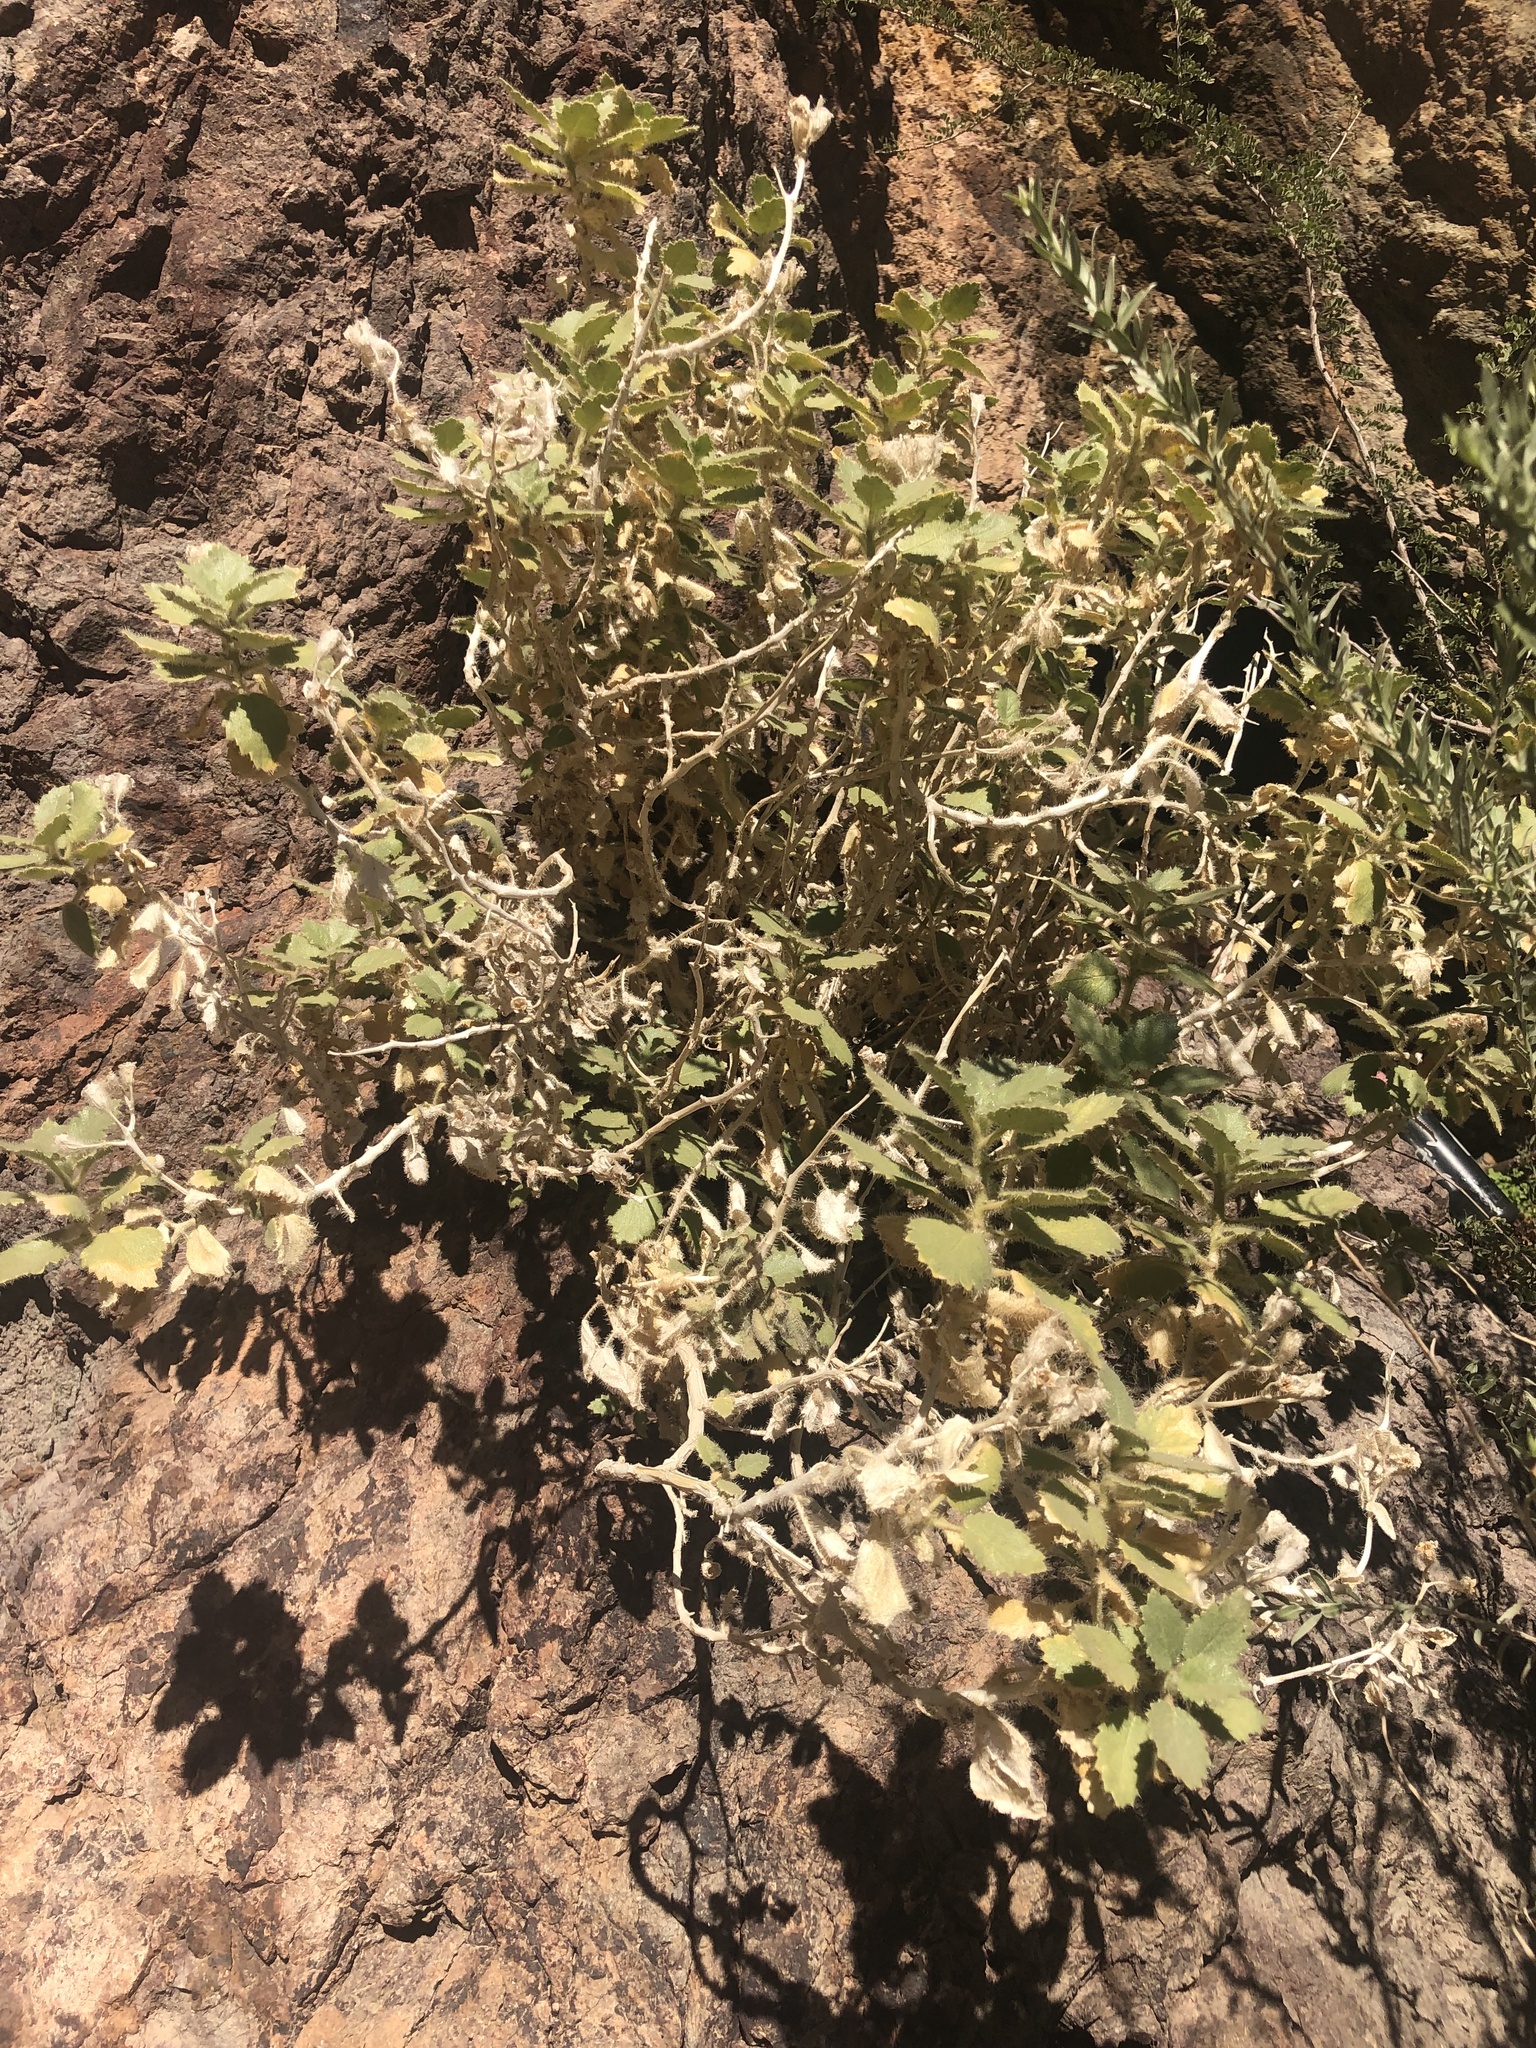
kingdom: Plantae
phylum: Tracheophyta
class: Magnoliopsida
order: Cornales
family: Loasaceae
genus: Eucnide
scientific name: Eucnide urens
